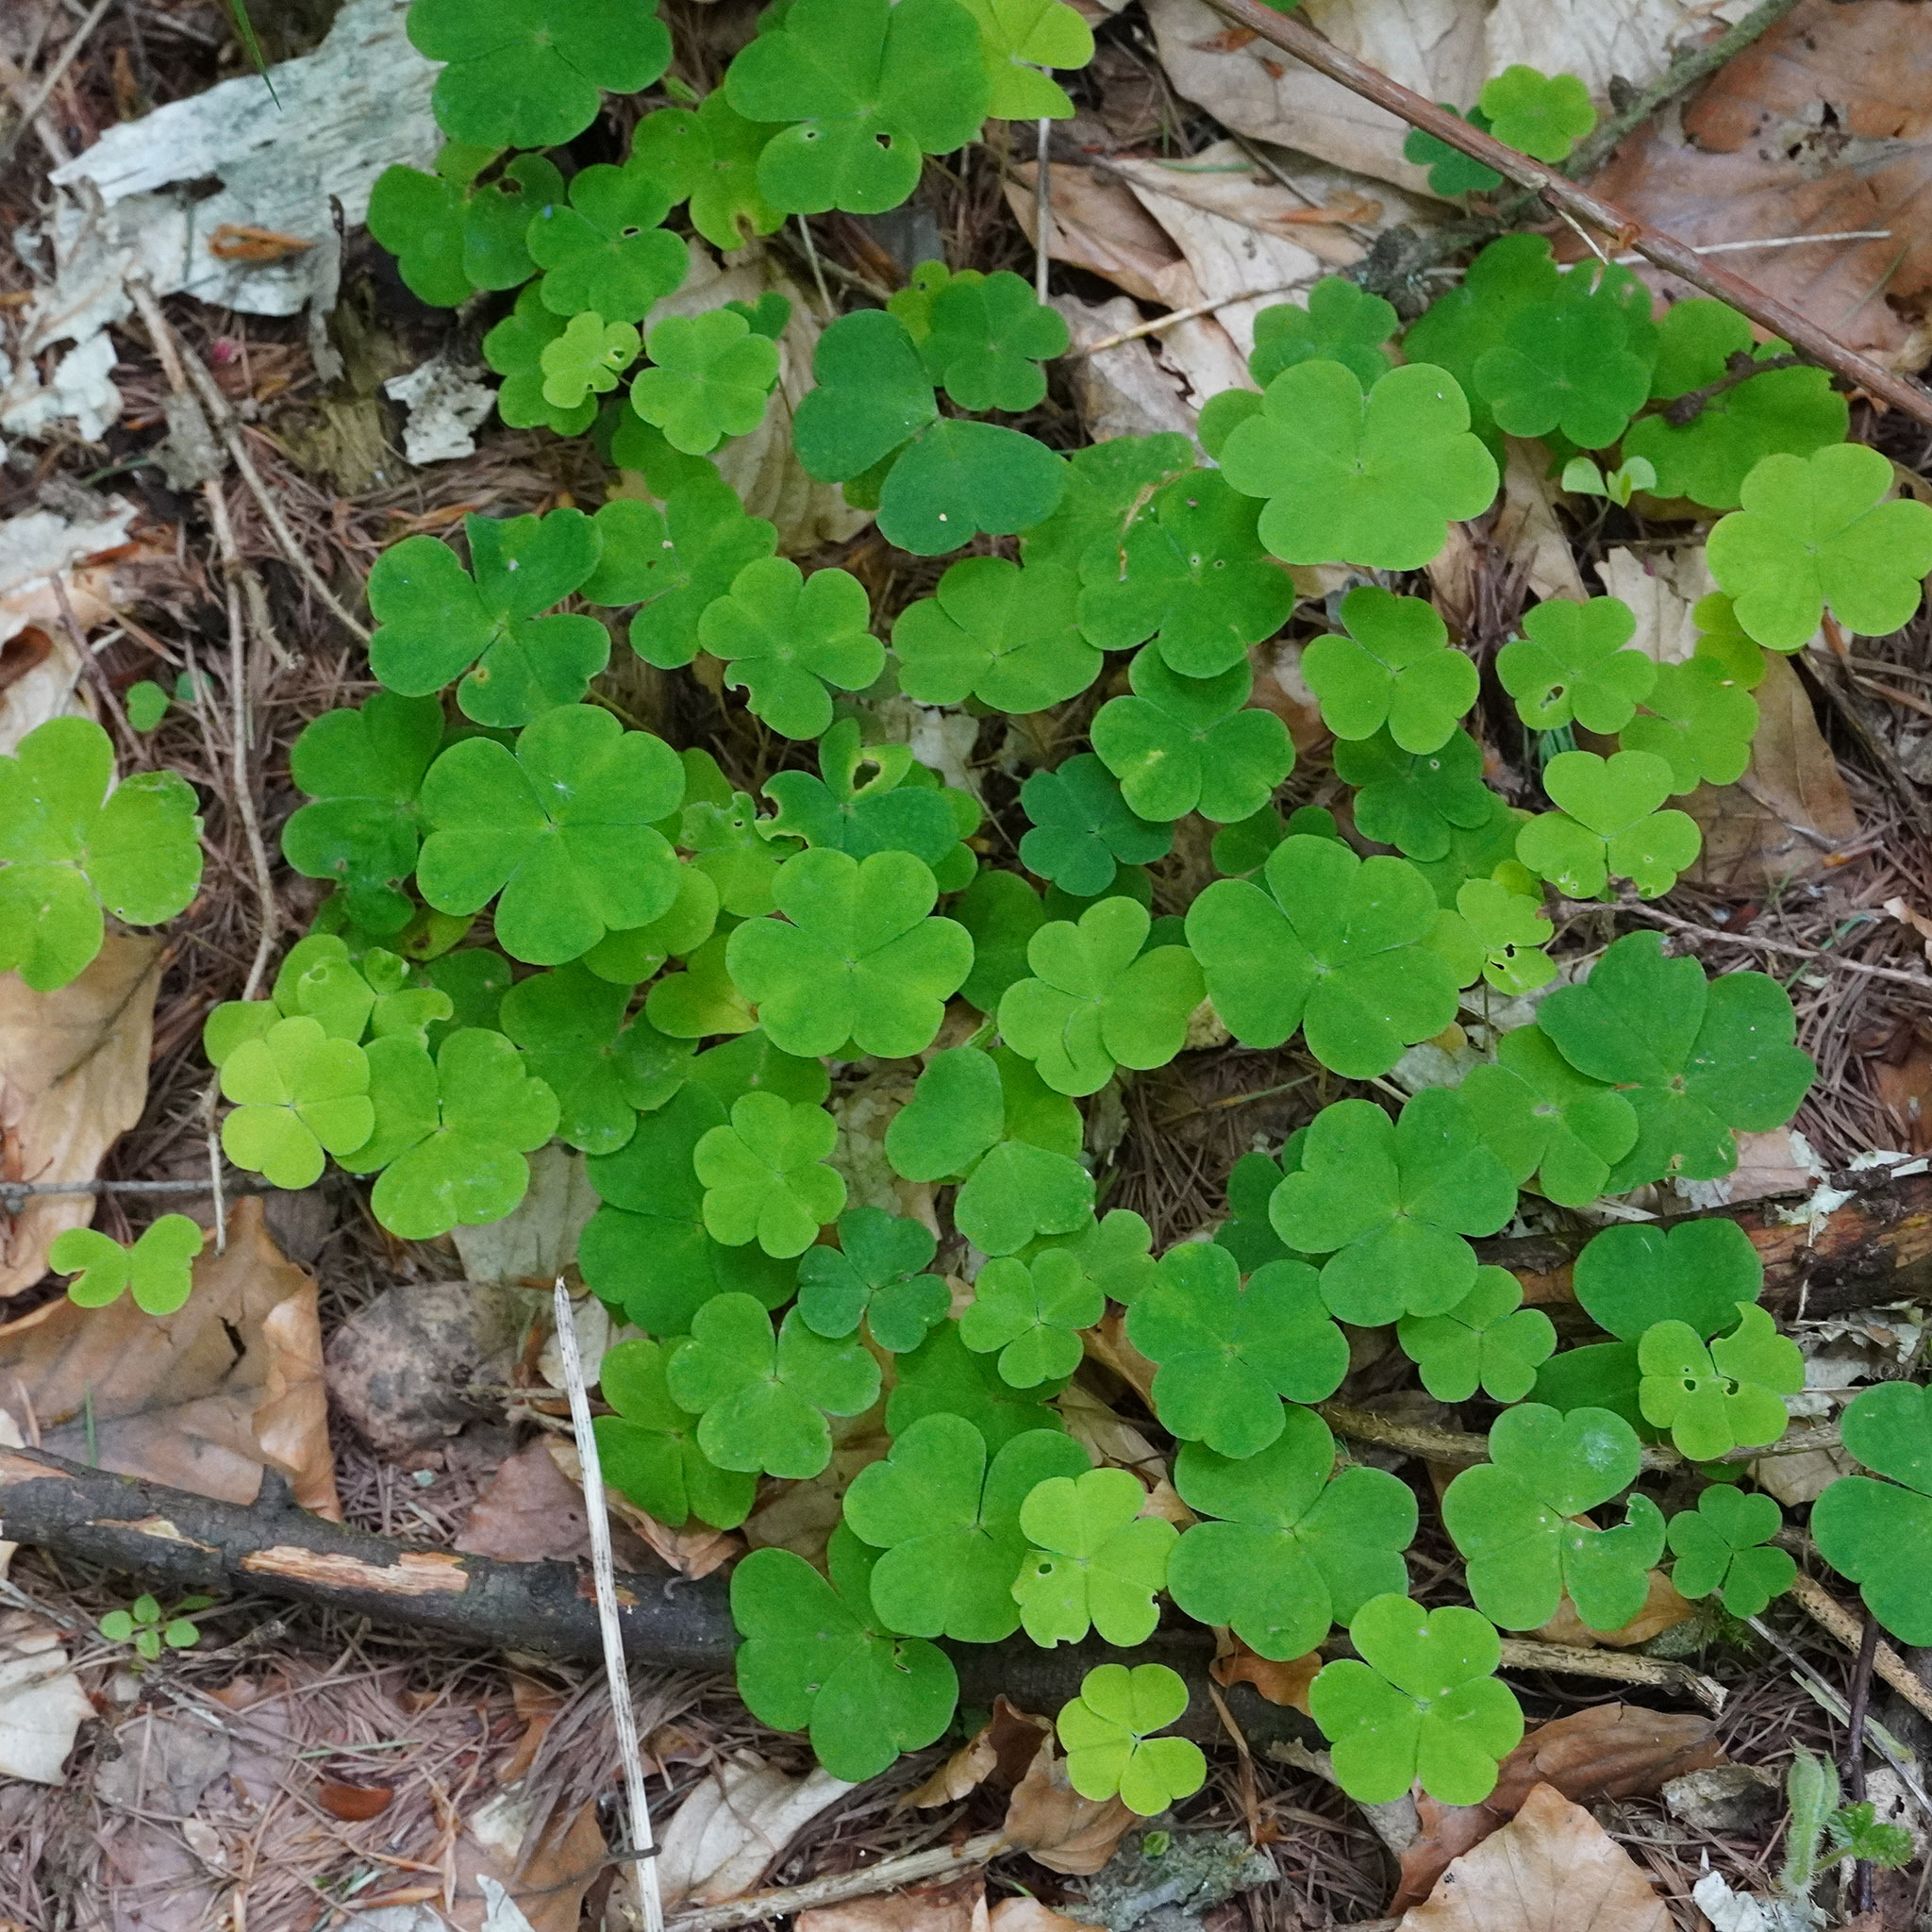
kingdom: Plantae
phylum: Tracheophyta
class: Magnoliopsida
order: Oxalidales
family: Oxalidaceae
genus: Oxalis
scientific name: Oxalis acetosella
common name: Wood-sorrel
